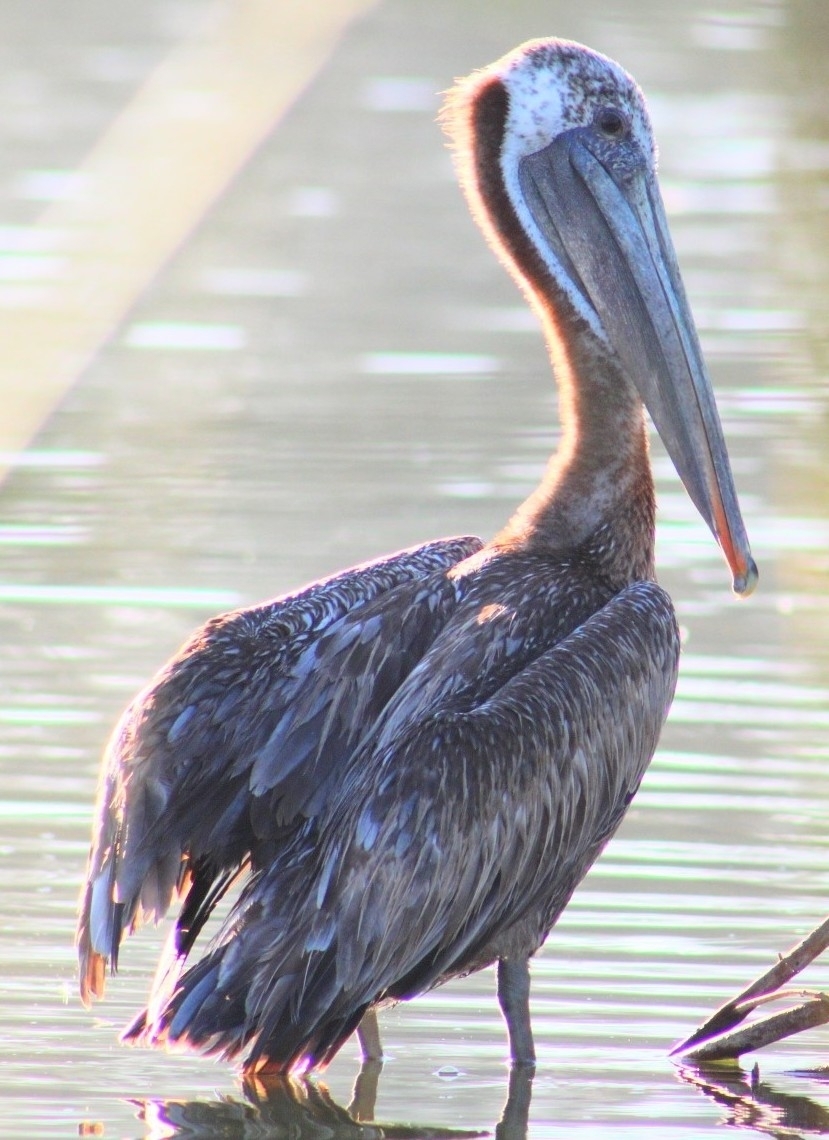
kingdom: Animalia
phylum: Chordata
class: Aves
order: Pelecaniformes
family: Pelecanidae
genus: Pelecanus
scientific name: Pelecanus occidentalis
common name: Brown pelican
